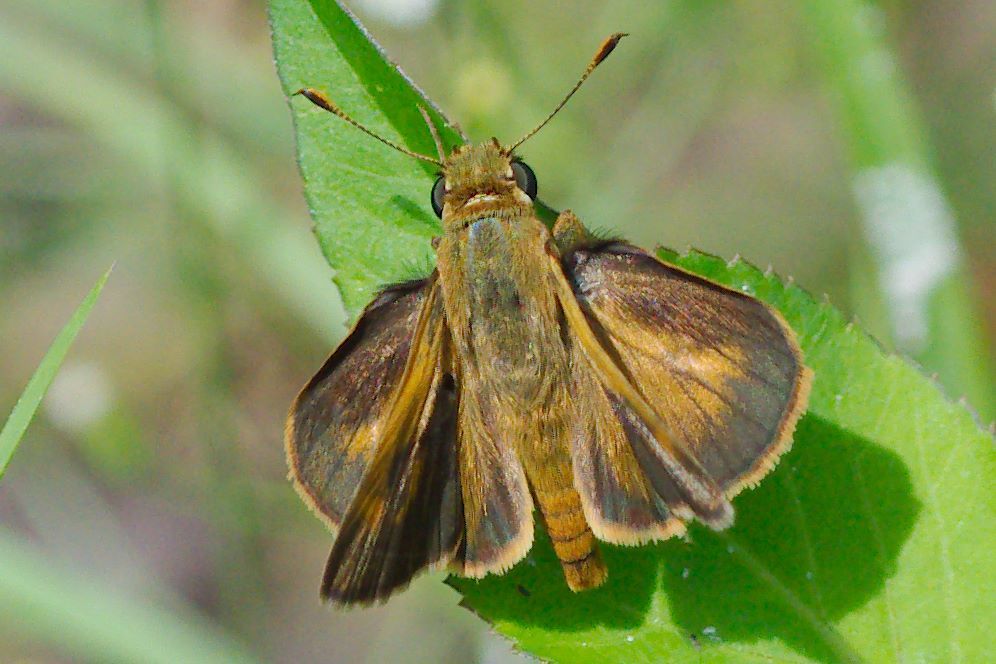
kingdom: Animalia
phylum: Arthropoda
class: Insecta
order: Lepidoptera
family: Hesperiidae
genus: Polites
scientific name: Polites otho
